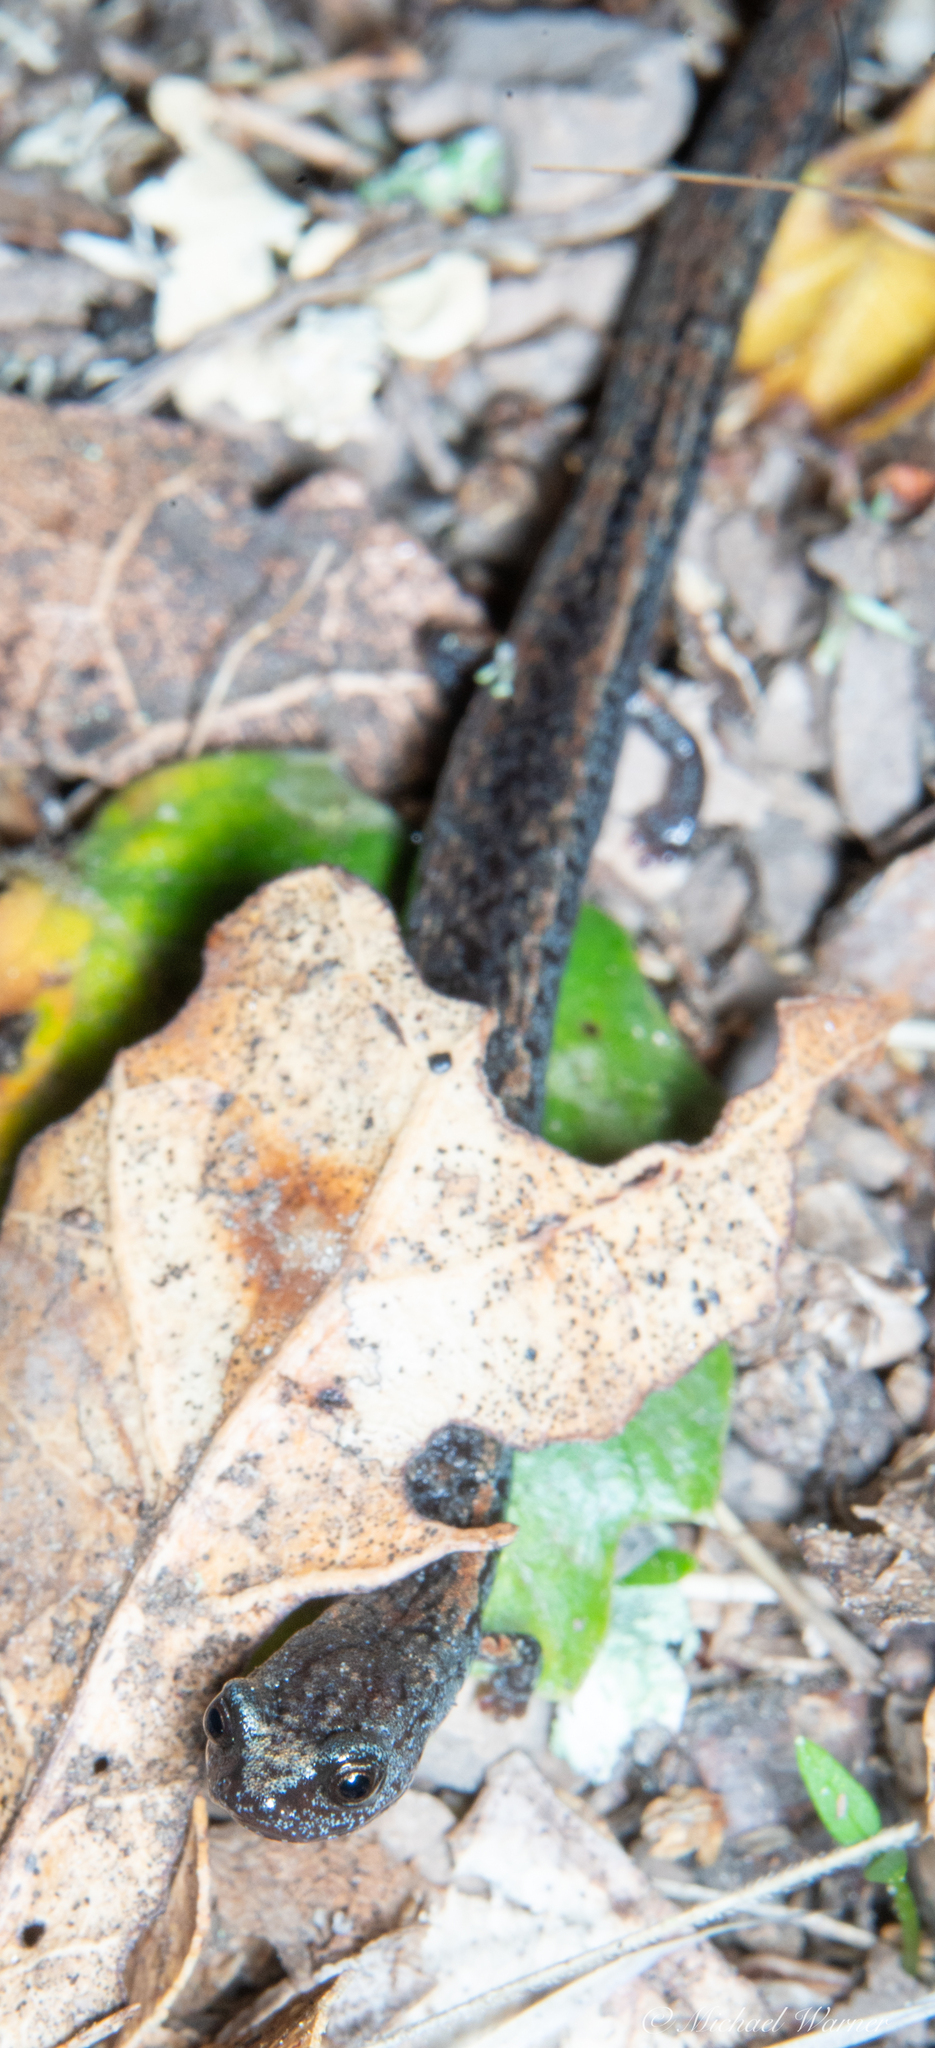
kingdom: Animalia
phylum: Chordata
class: Amphibia
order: Caudata
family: Plethodontidae
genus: Batrachoseps
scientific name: Batrachoseps attenuatus
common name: California slender salamander
